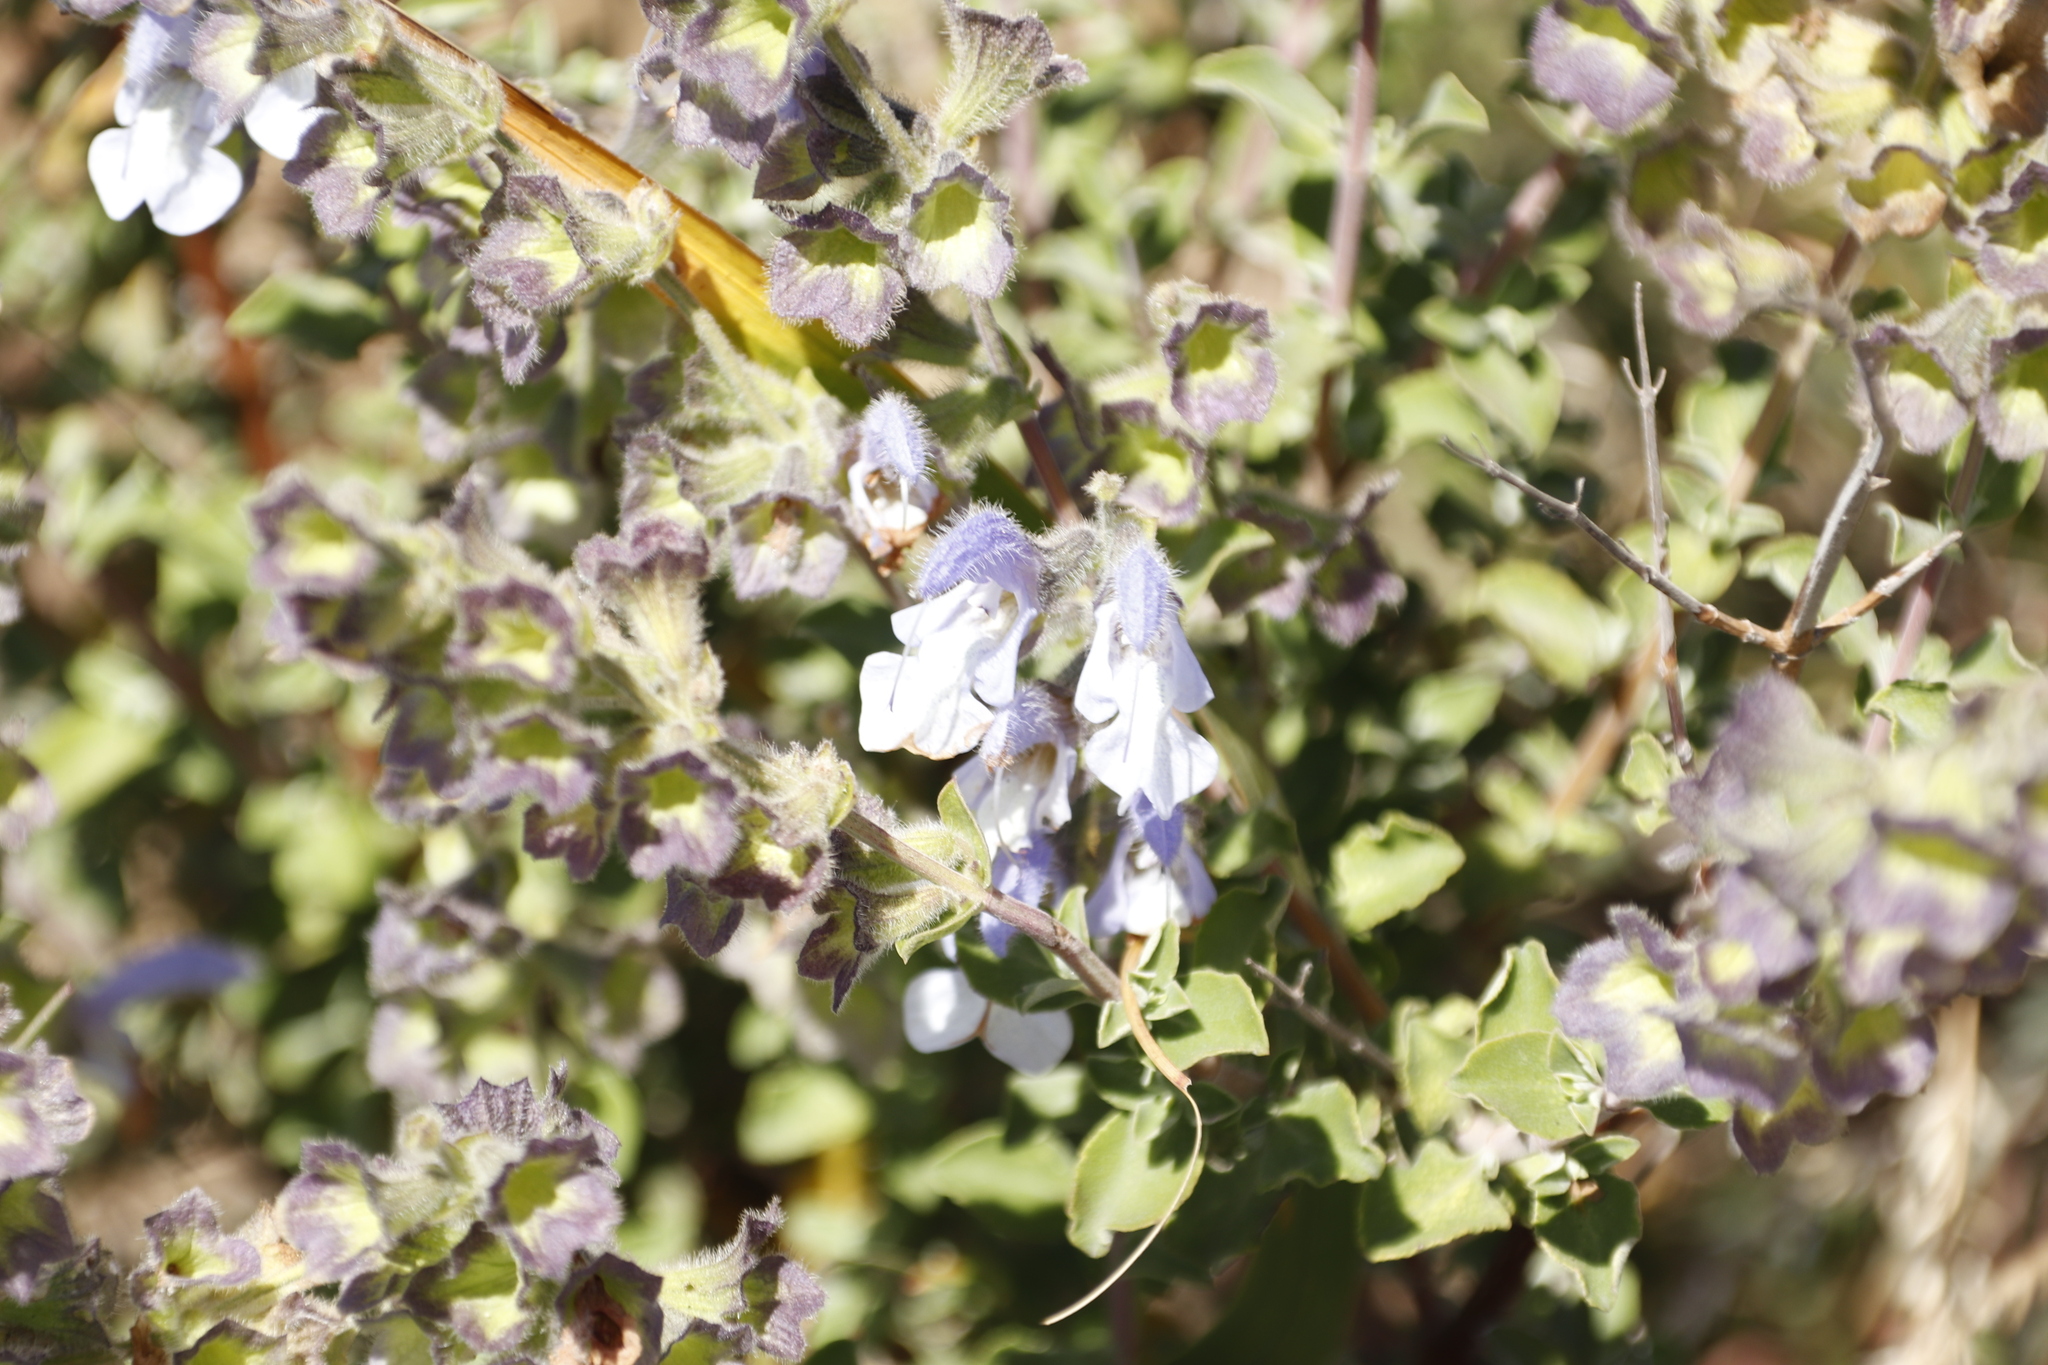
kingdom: Plantae
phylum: Tracheophyta
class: Magnoliopsida
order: Lamiales
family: Lamiaceae
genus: Salvia
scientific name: Salvia africana
